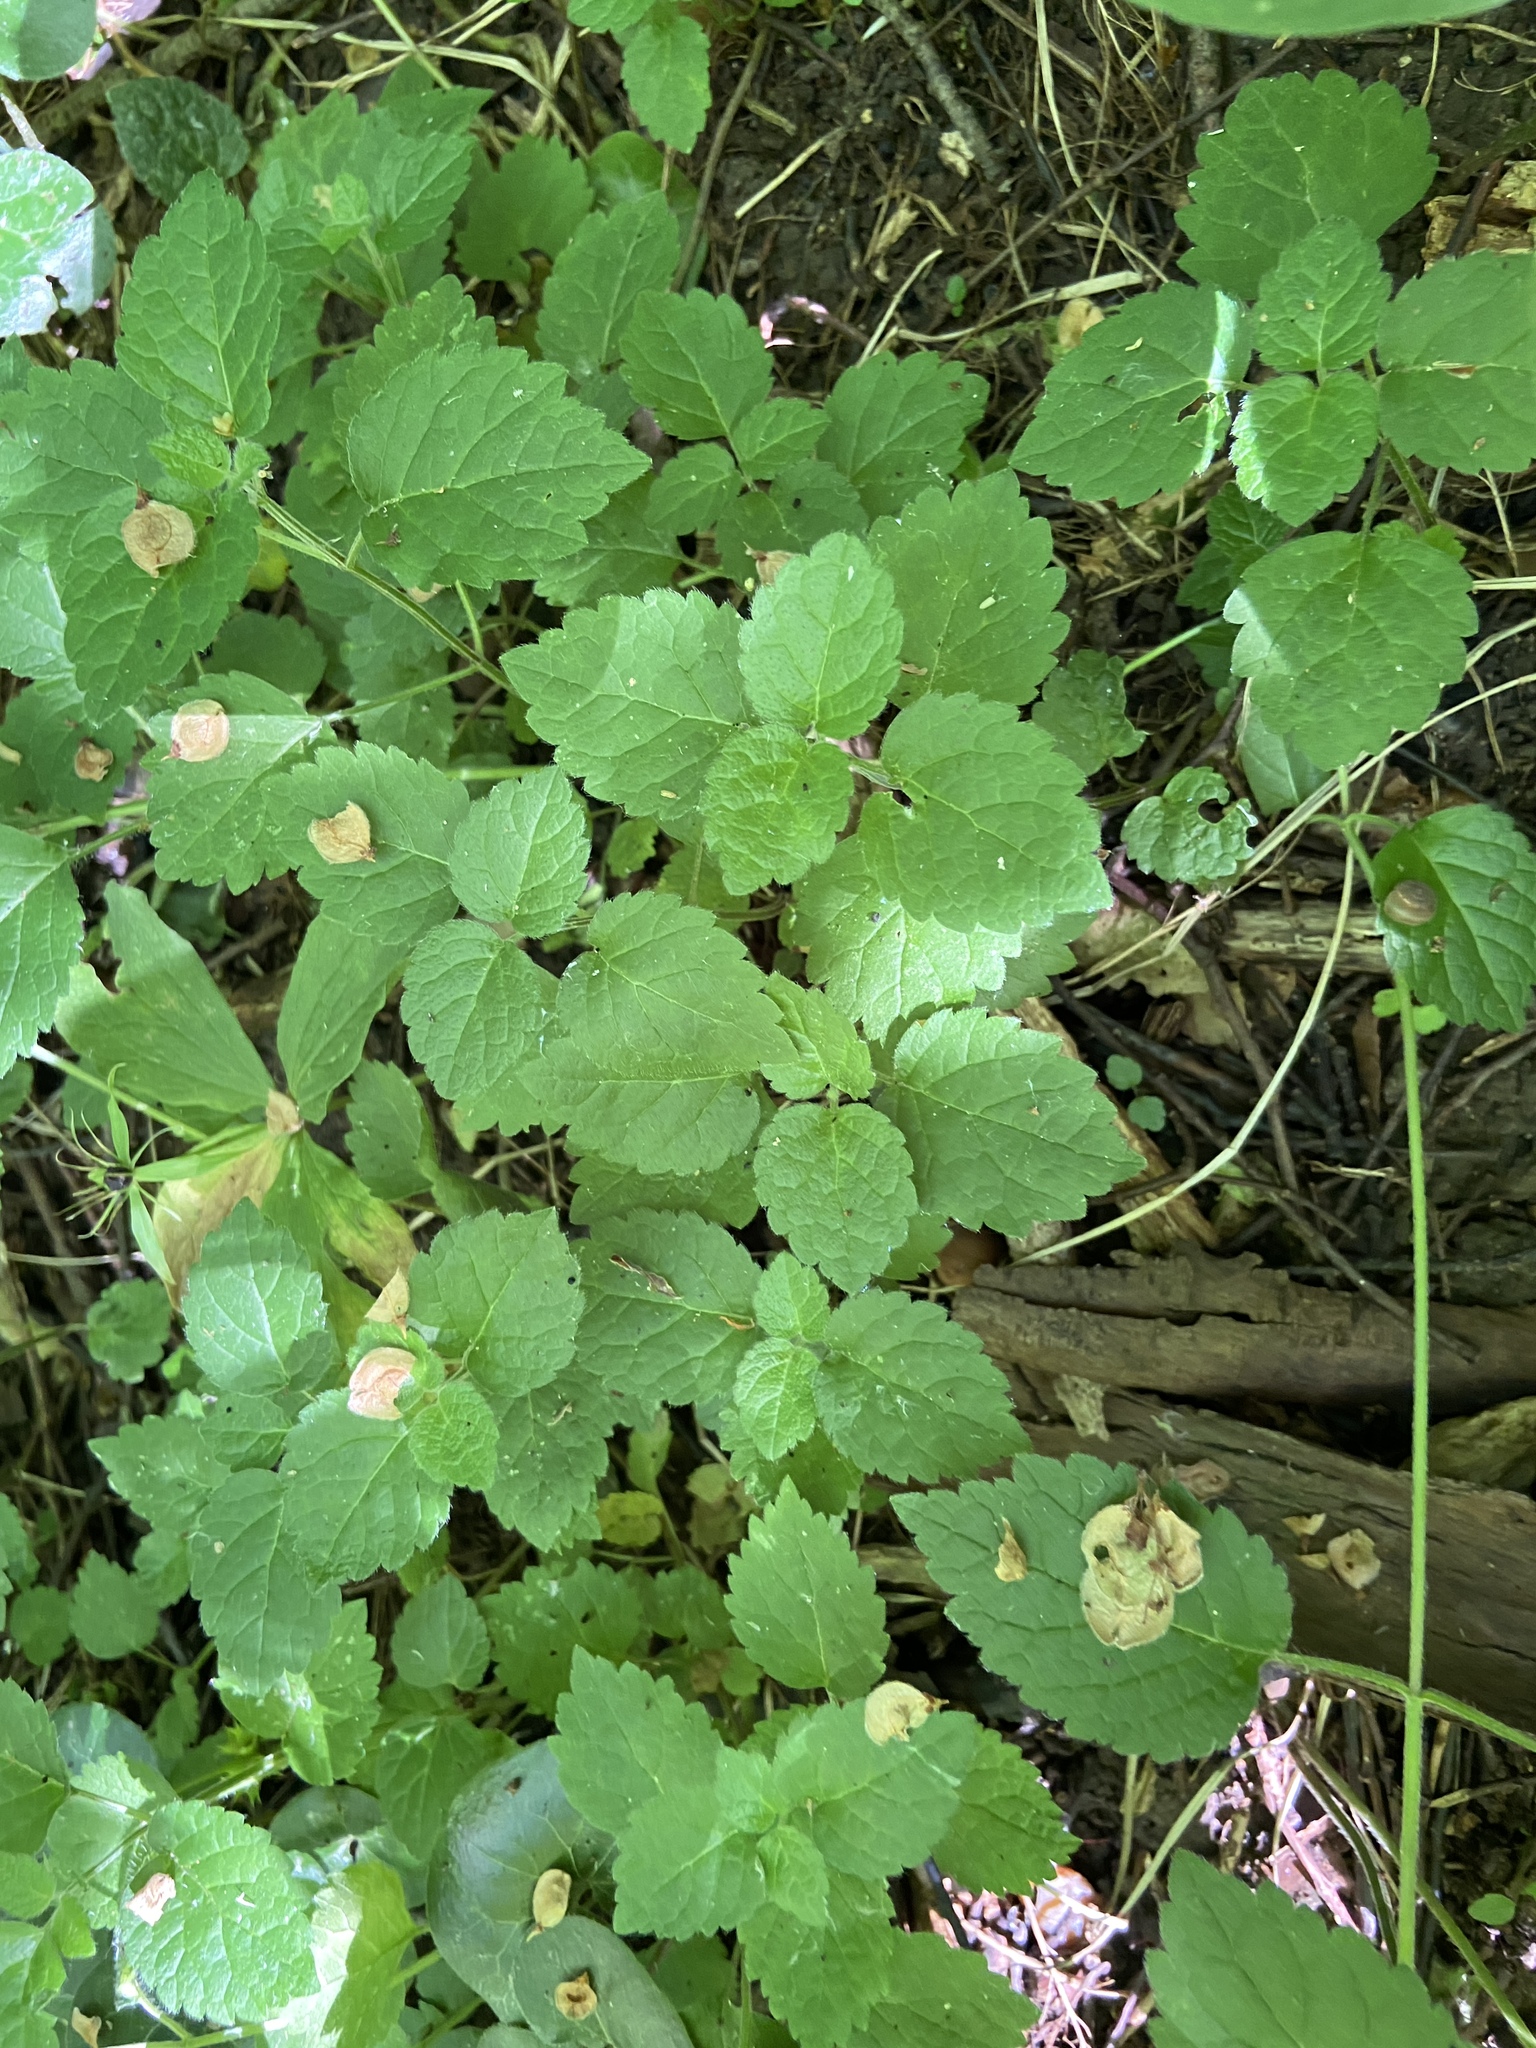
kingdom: Plantae
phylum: Tracheophyta
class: Magnoliopsida
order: Lamiales
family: Lamiaceae
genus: Lamium
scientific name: Lamium galeobdolon
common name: Yellow archangel
